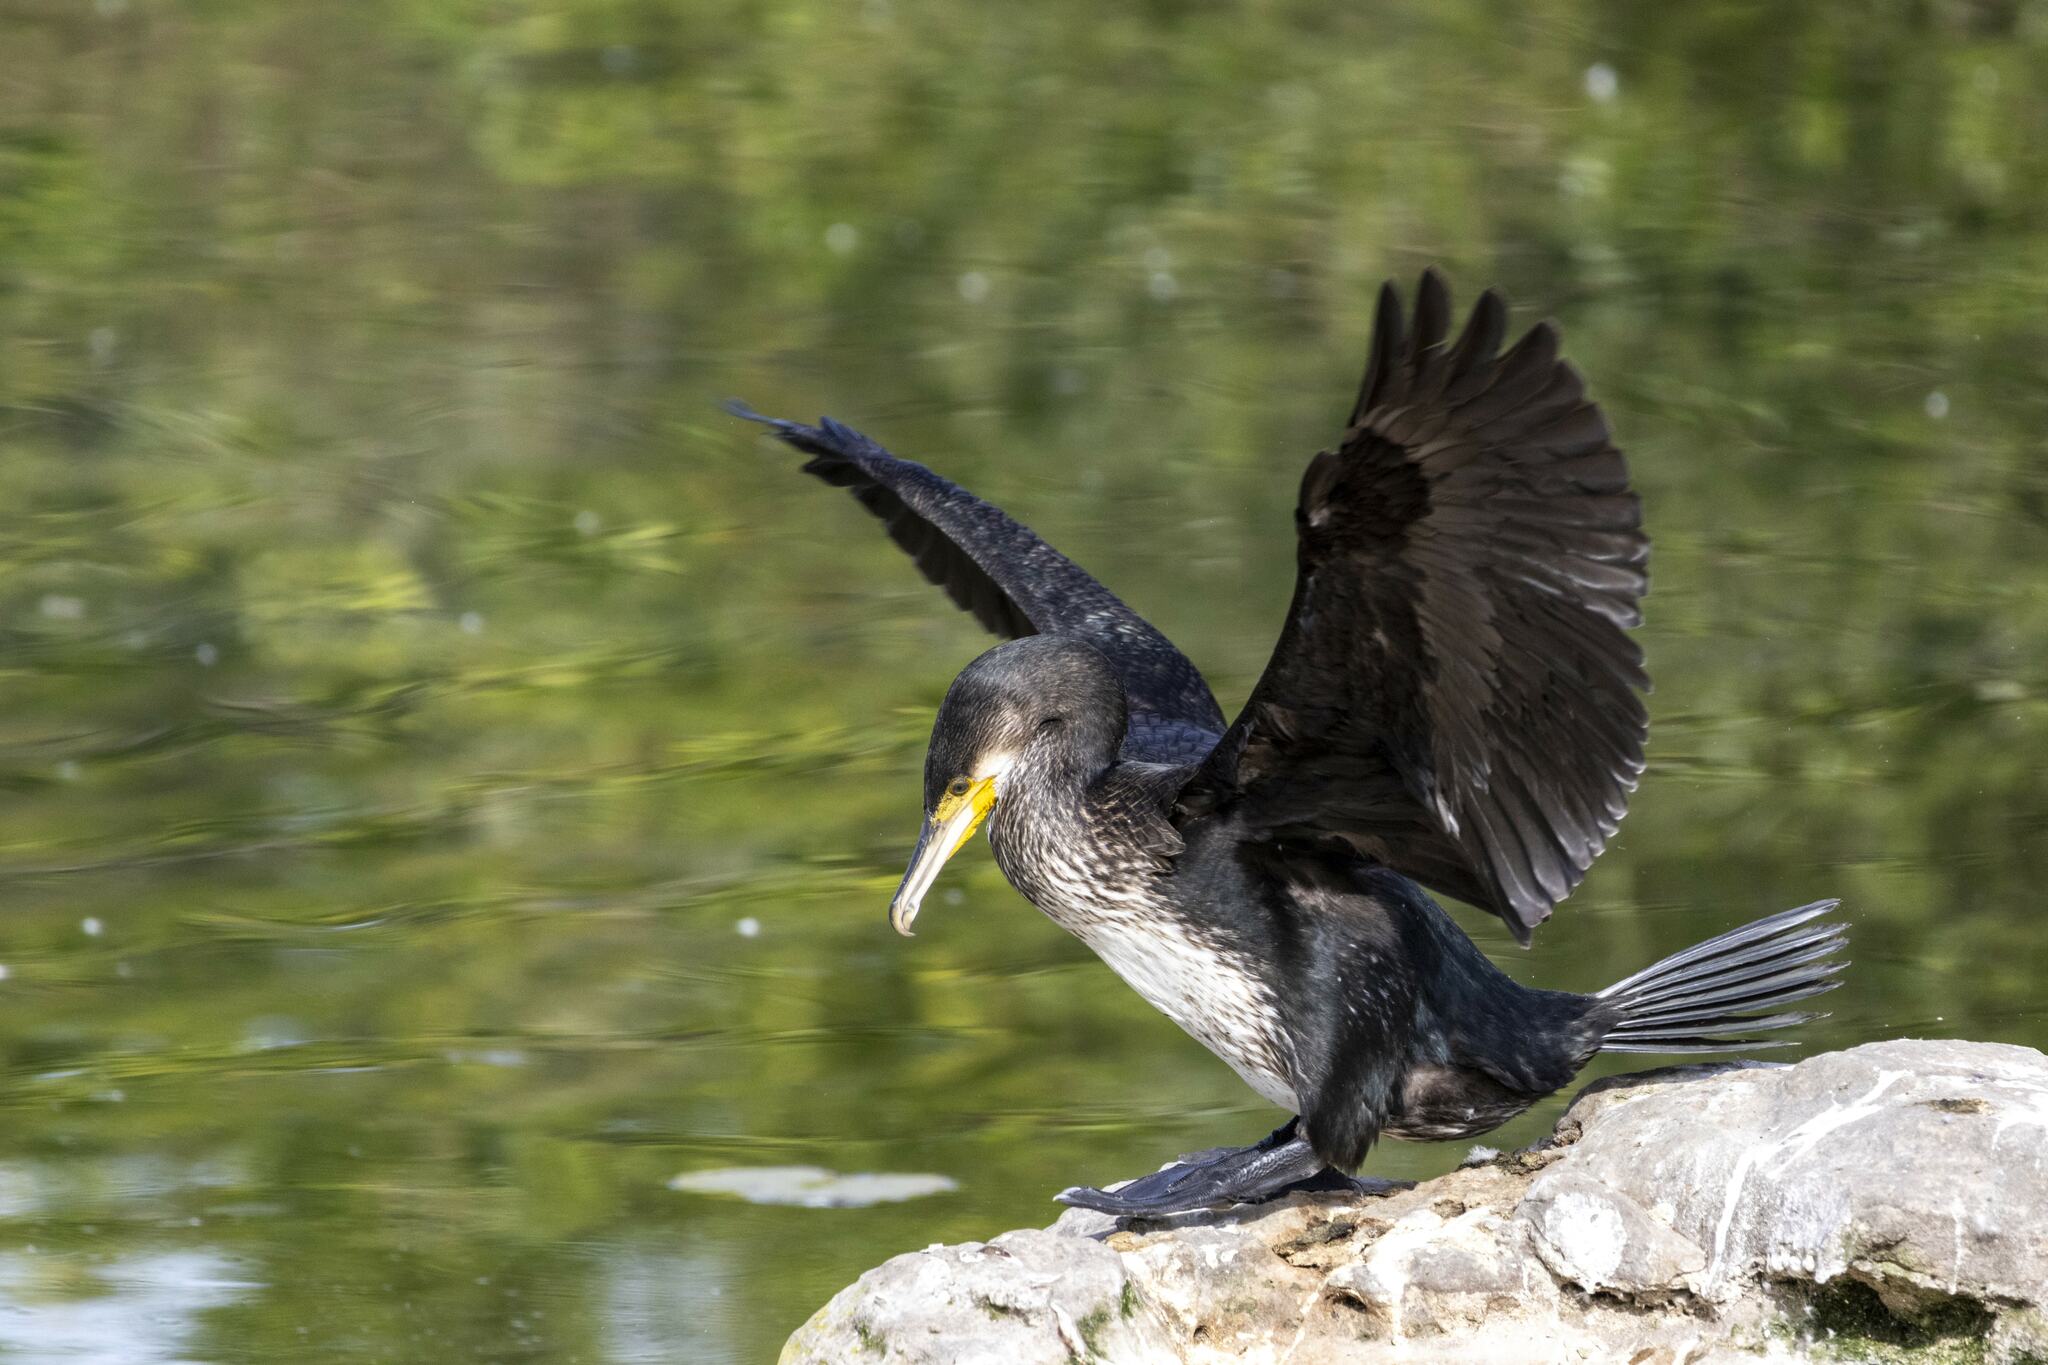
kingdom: Animalia
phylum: Chordata
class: Aves
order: Suliformes
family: Phalacrocoracidae
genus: Phalacrocorax
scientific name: Phalacrocorax carbo
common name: Great cormorant
